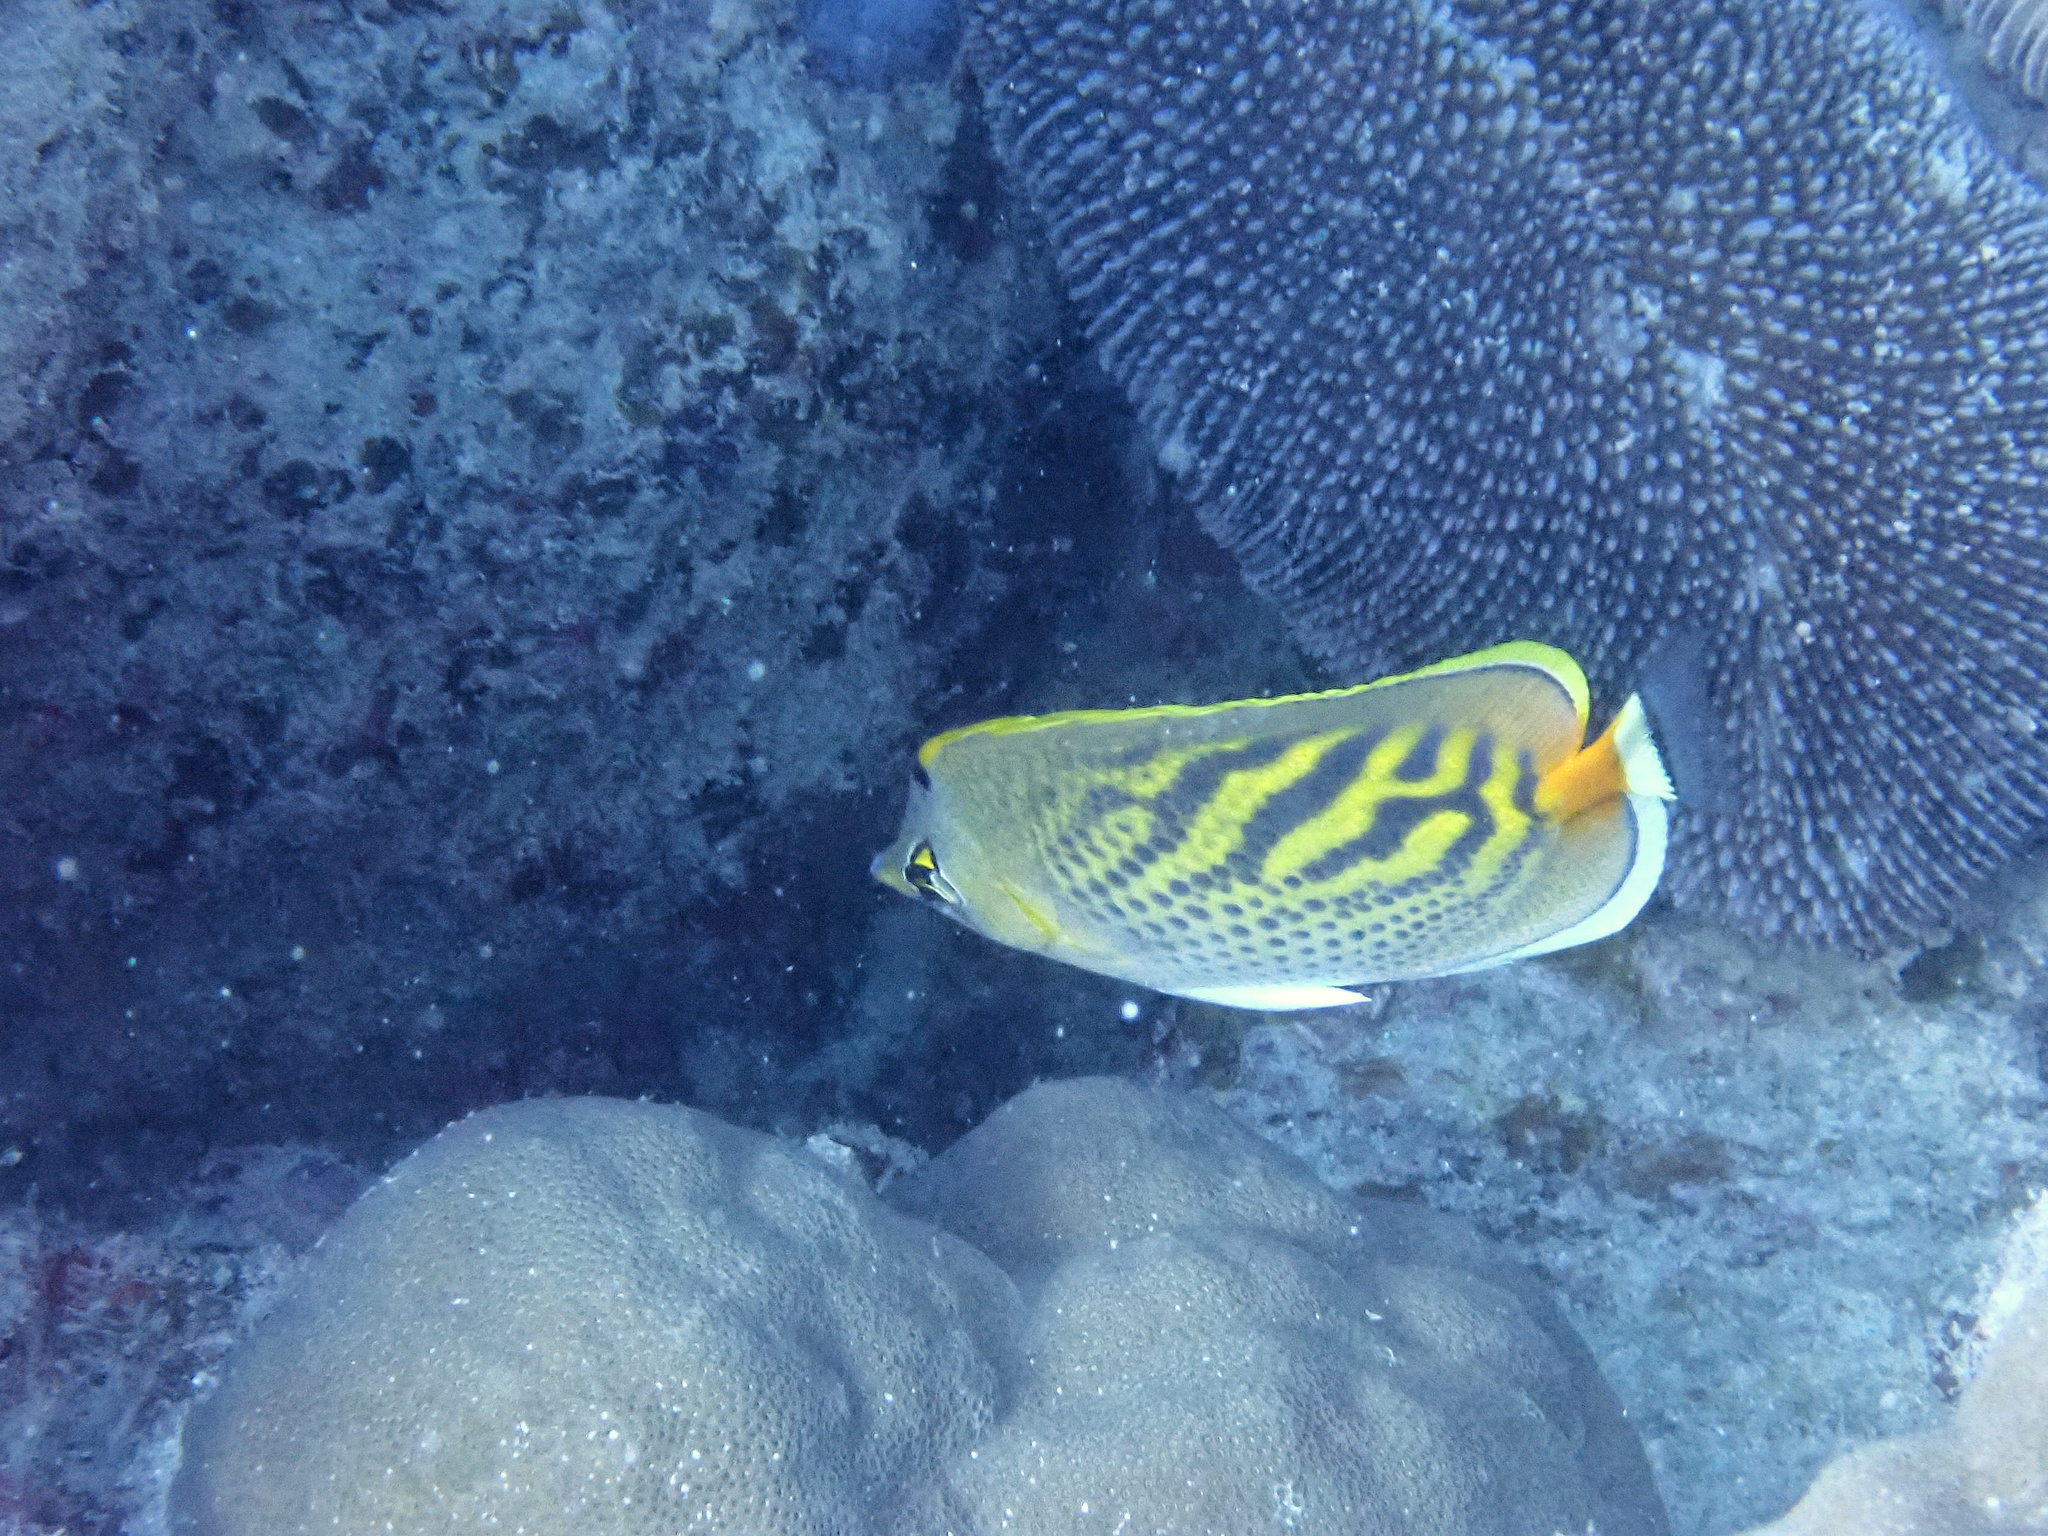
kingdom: Animalia
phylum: Chordata
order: Perciformes
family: Chaetodontidae
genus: Chaetodon
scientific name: Chaetodon pelewensis
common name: Dot-and-dash butterflyfish
